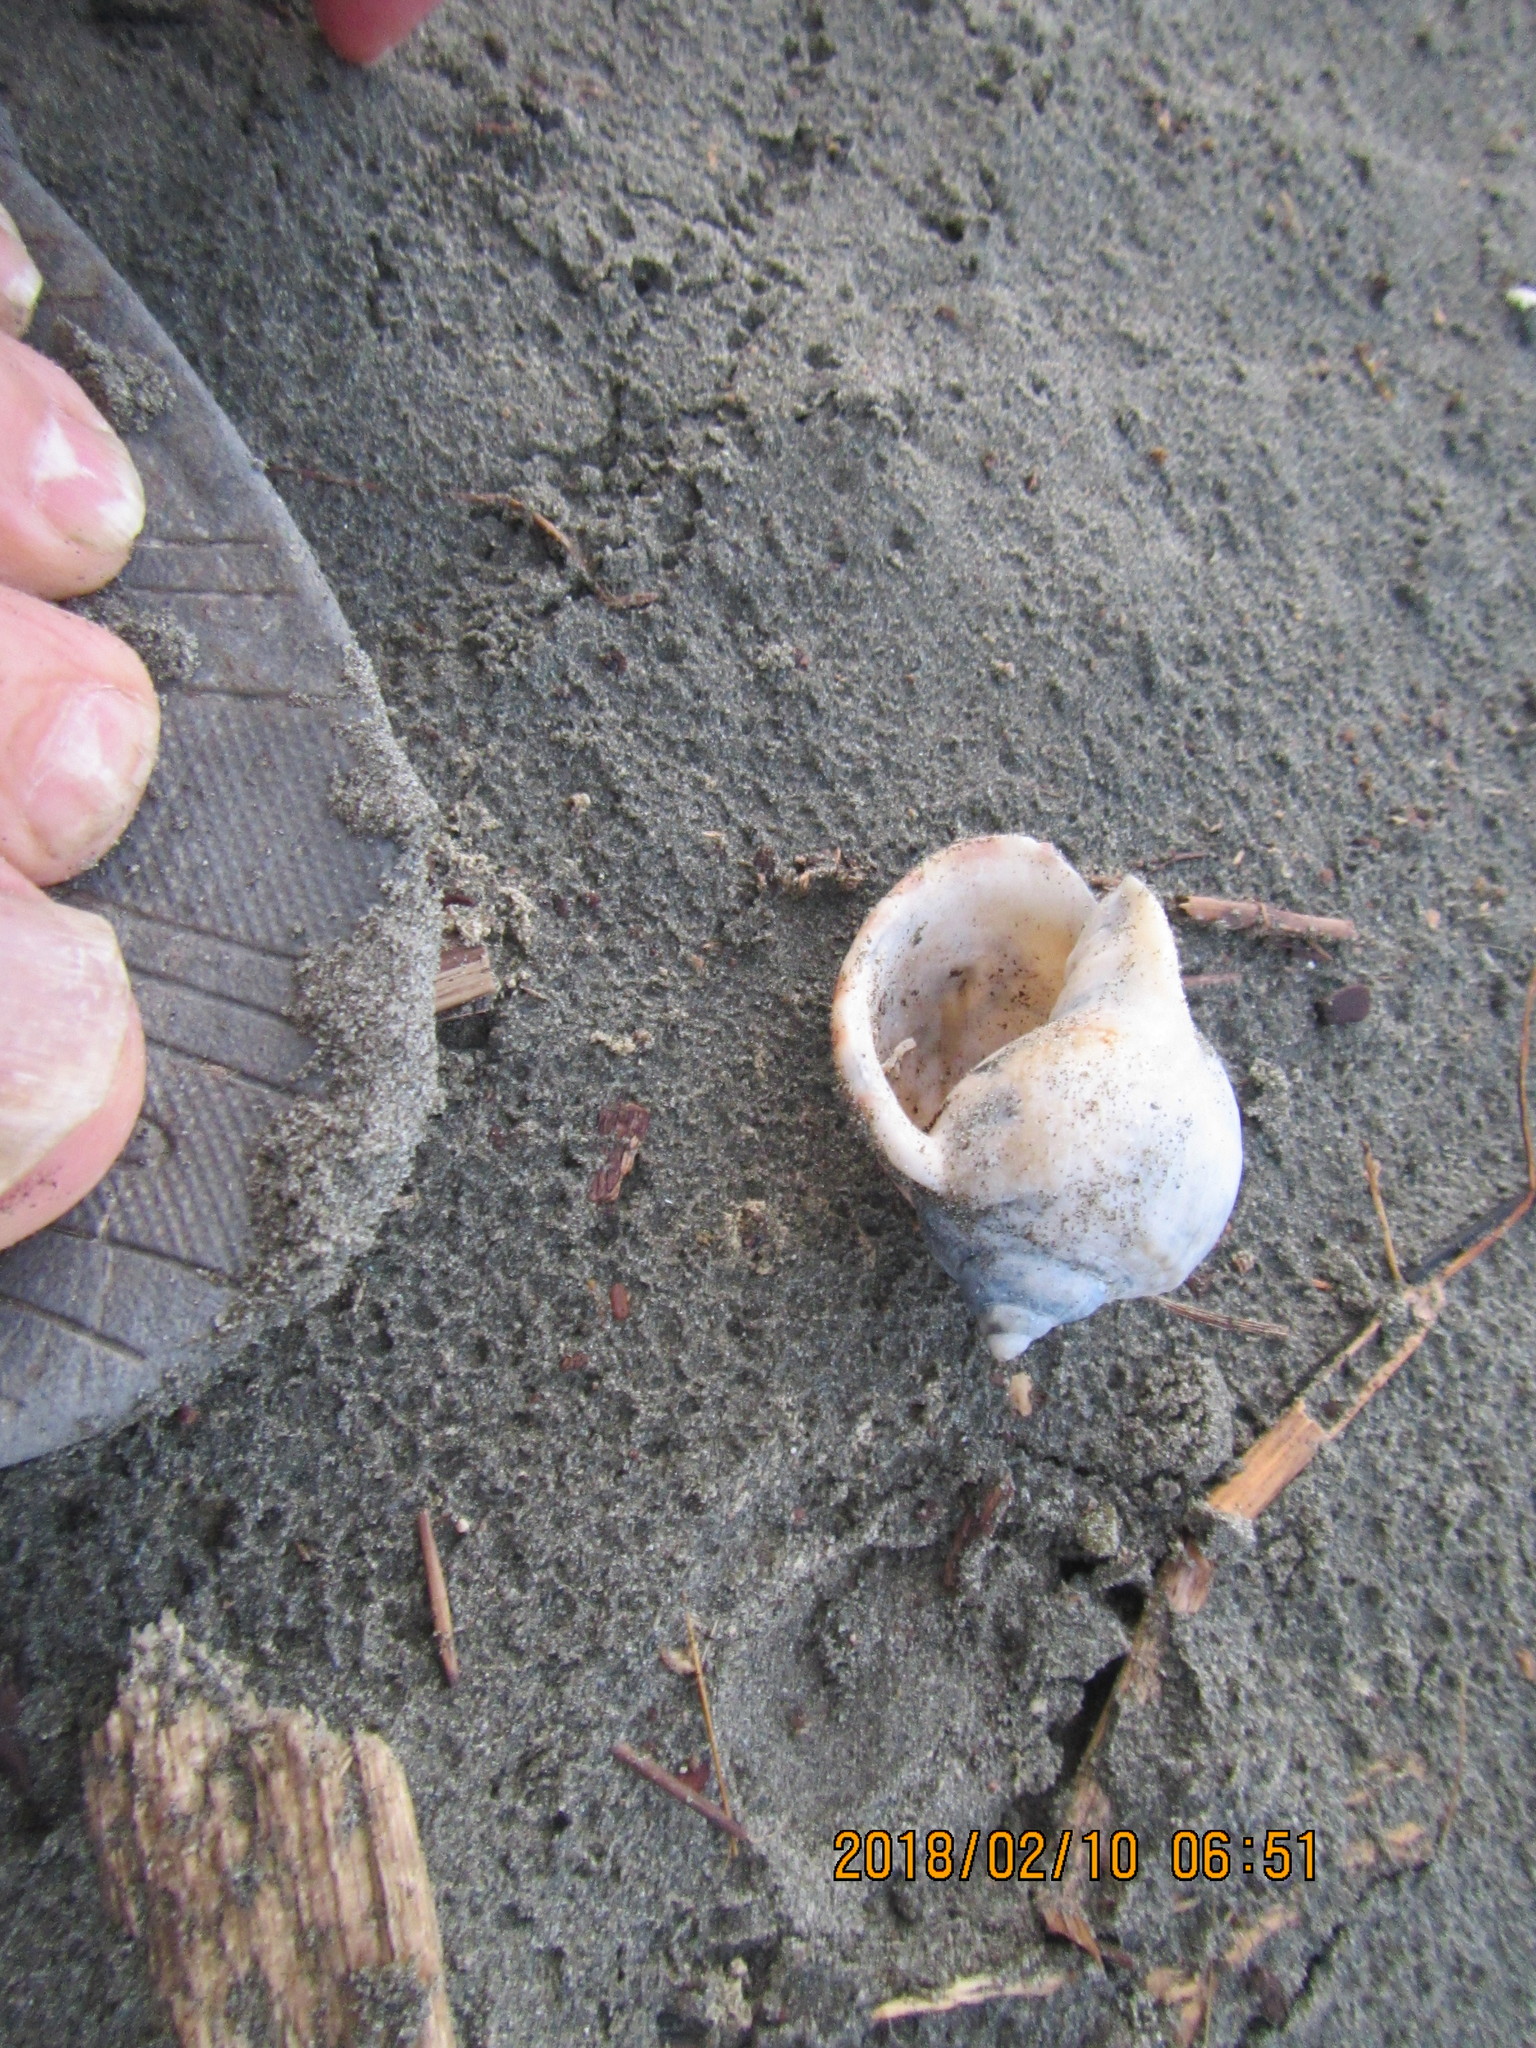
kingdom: Animalia
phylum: Mollusca
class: Gastropoda
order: Littorinimorpha
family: Cassidae
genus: Semicassis
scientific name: Semicassis pyrum
